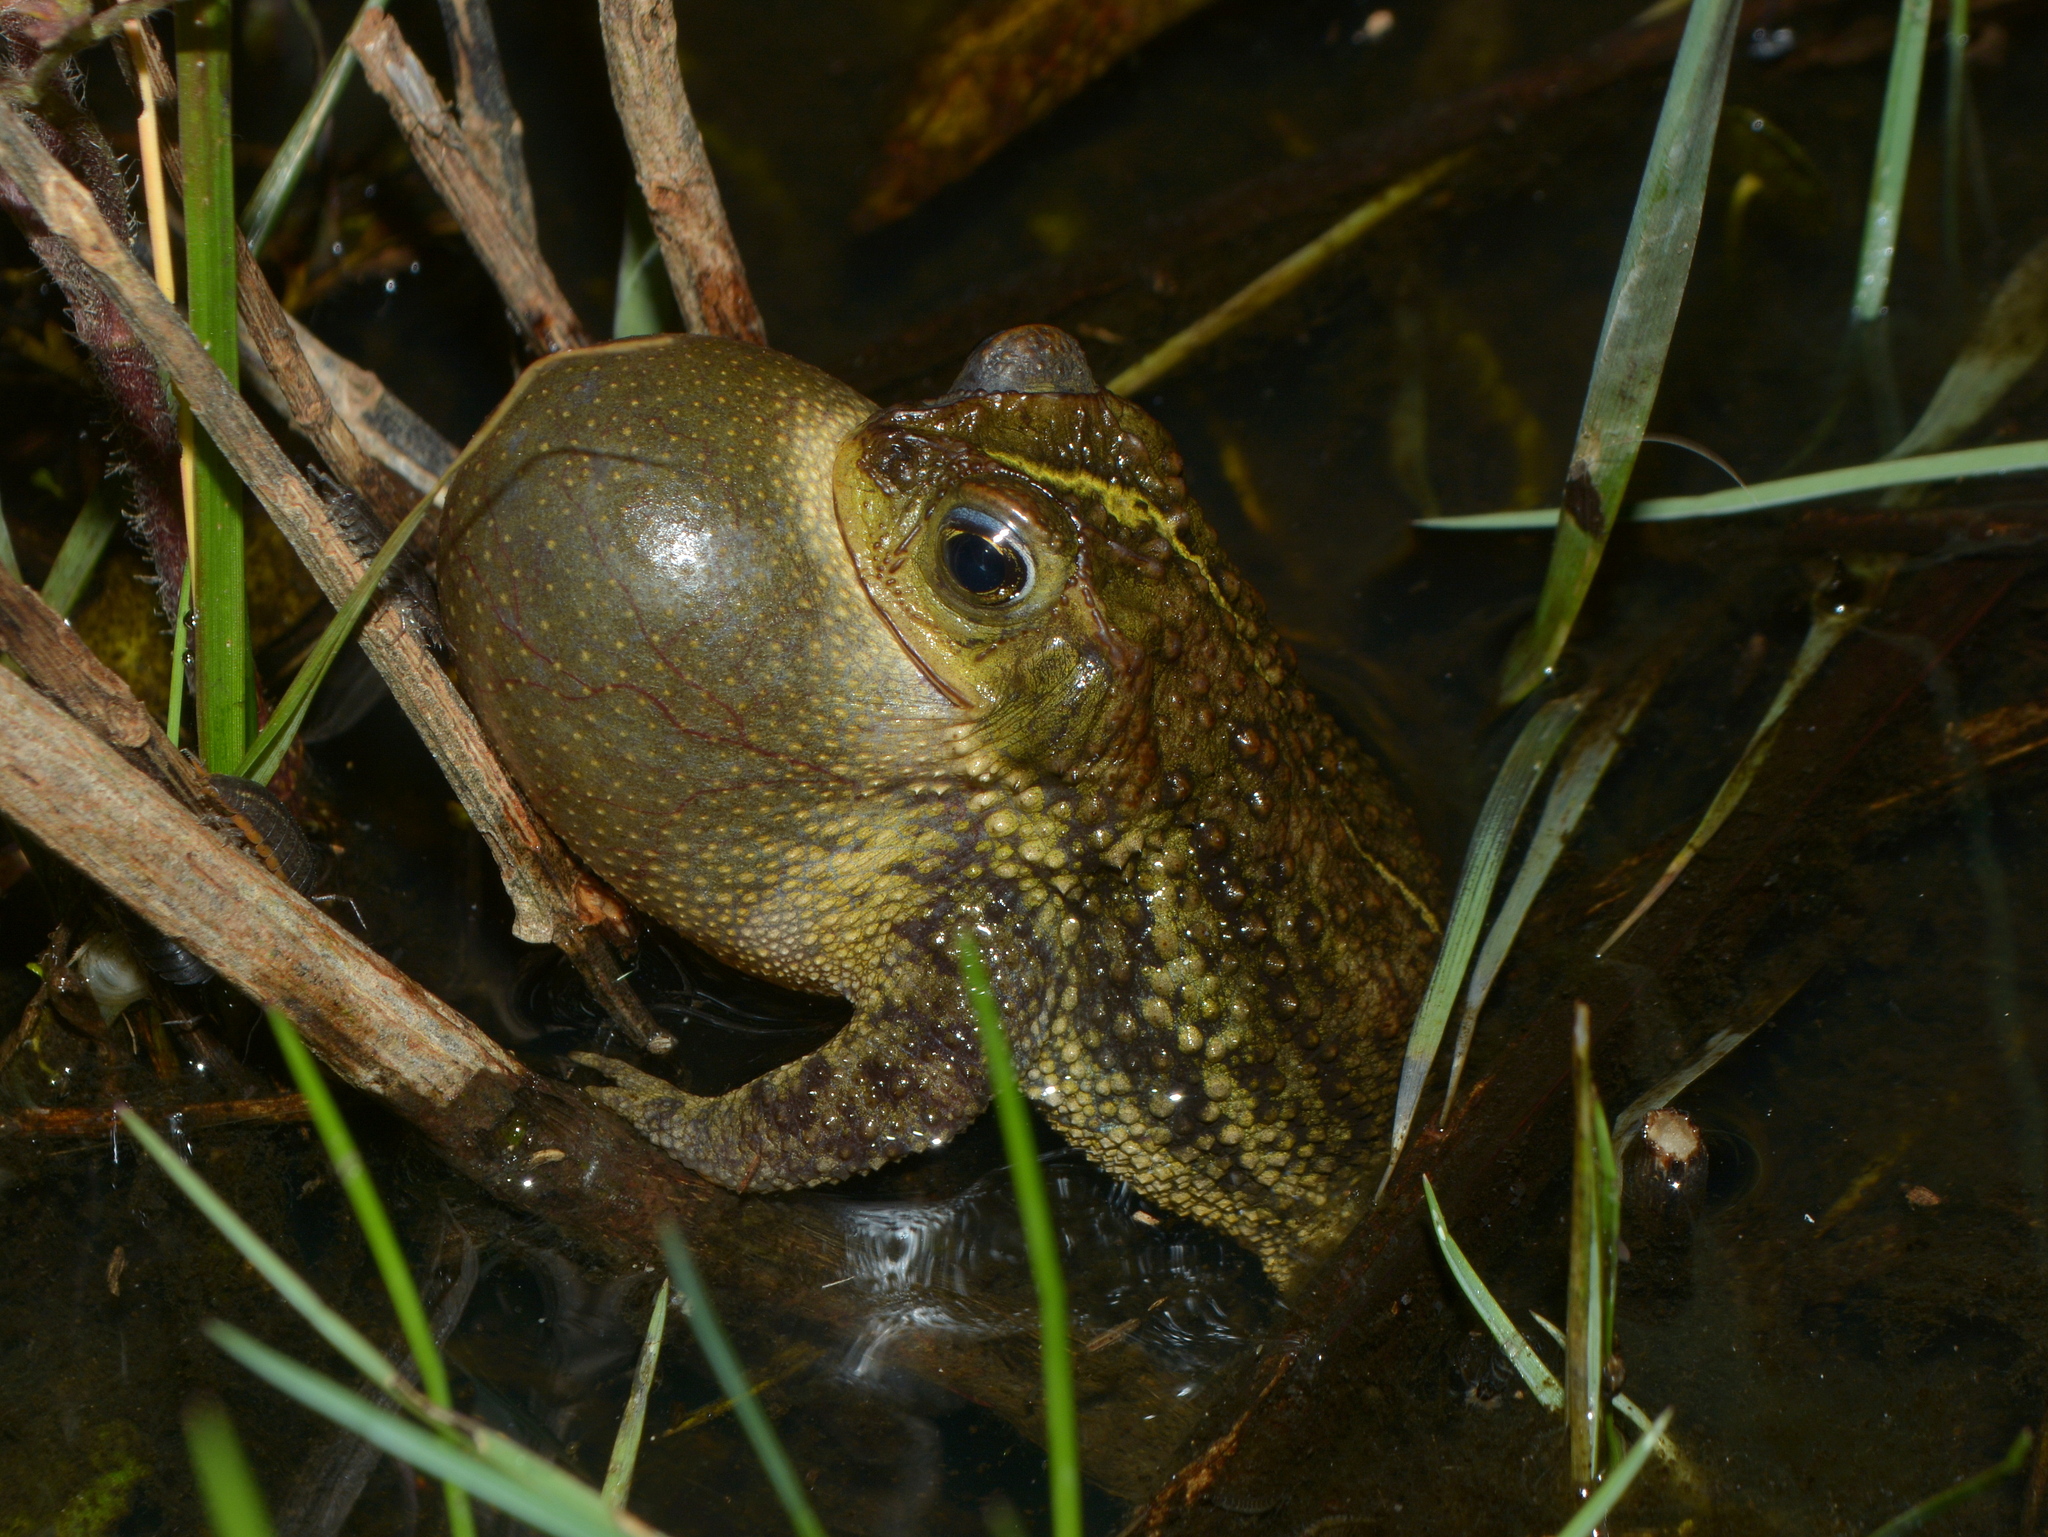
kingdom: Animalia
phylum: Chordata
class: Amphibia
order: Anura
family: Bufonidae
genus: Rhinella
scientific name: Rhinella dorbignyi
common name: D´orbigny’s toad
